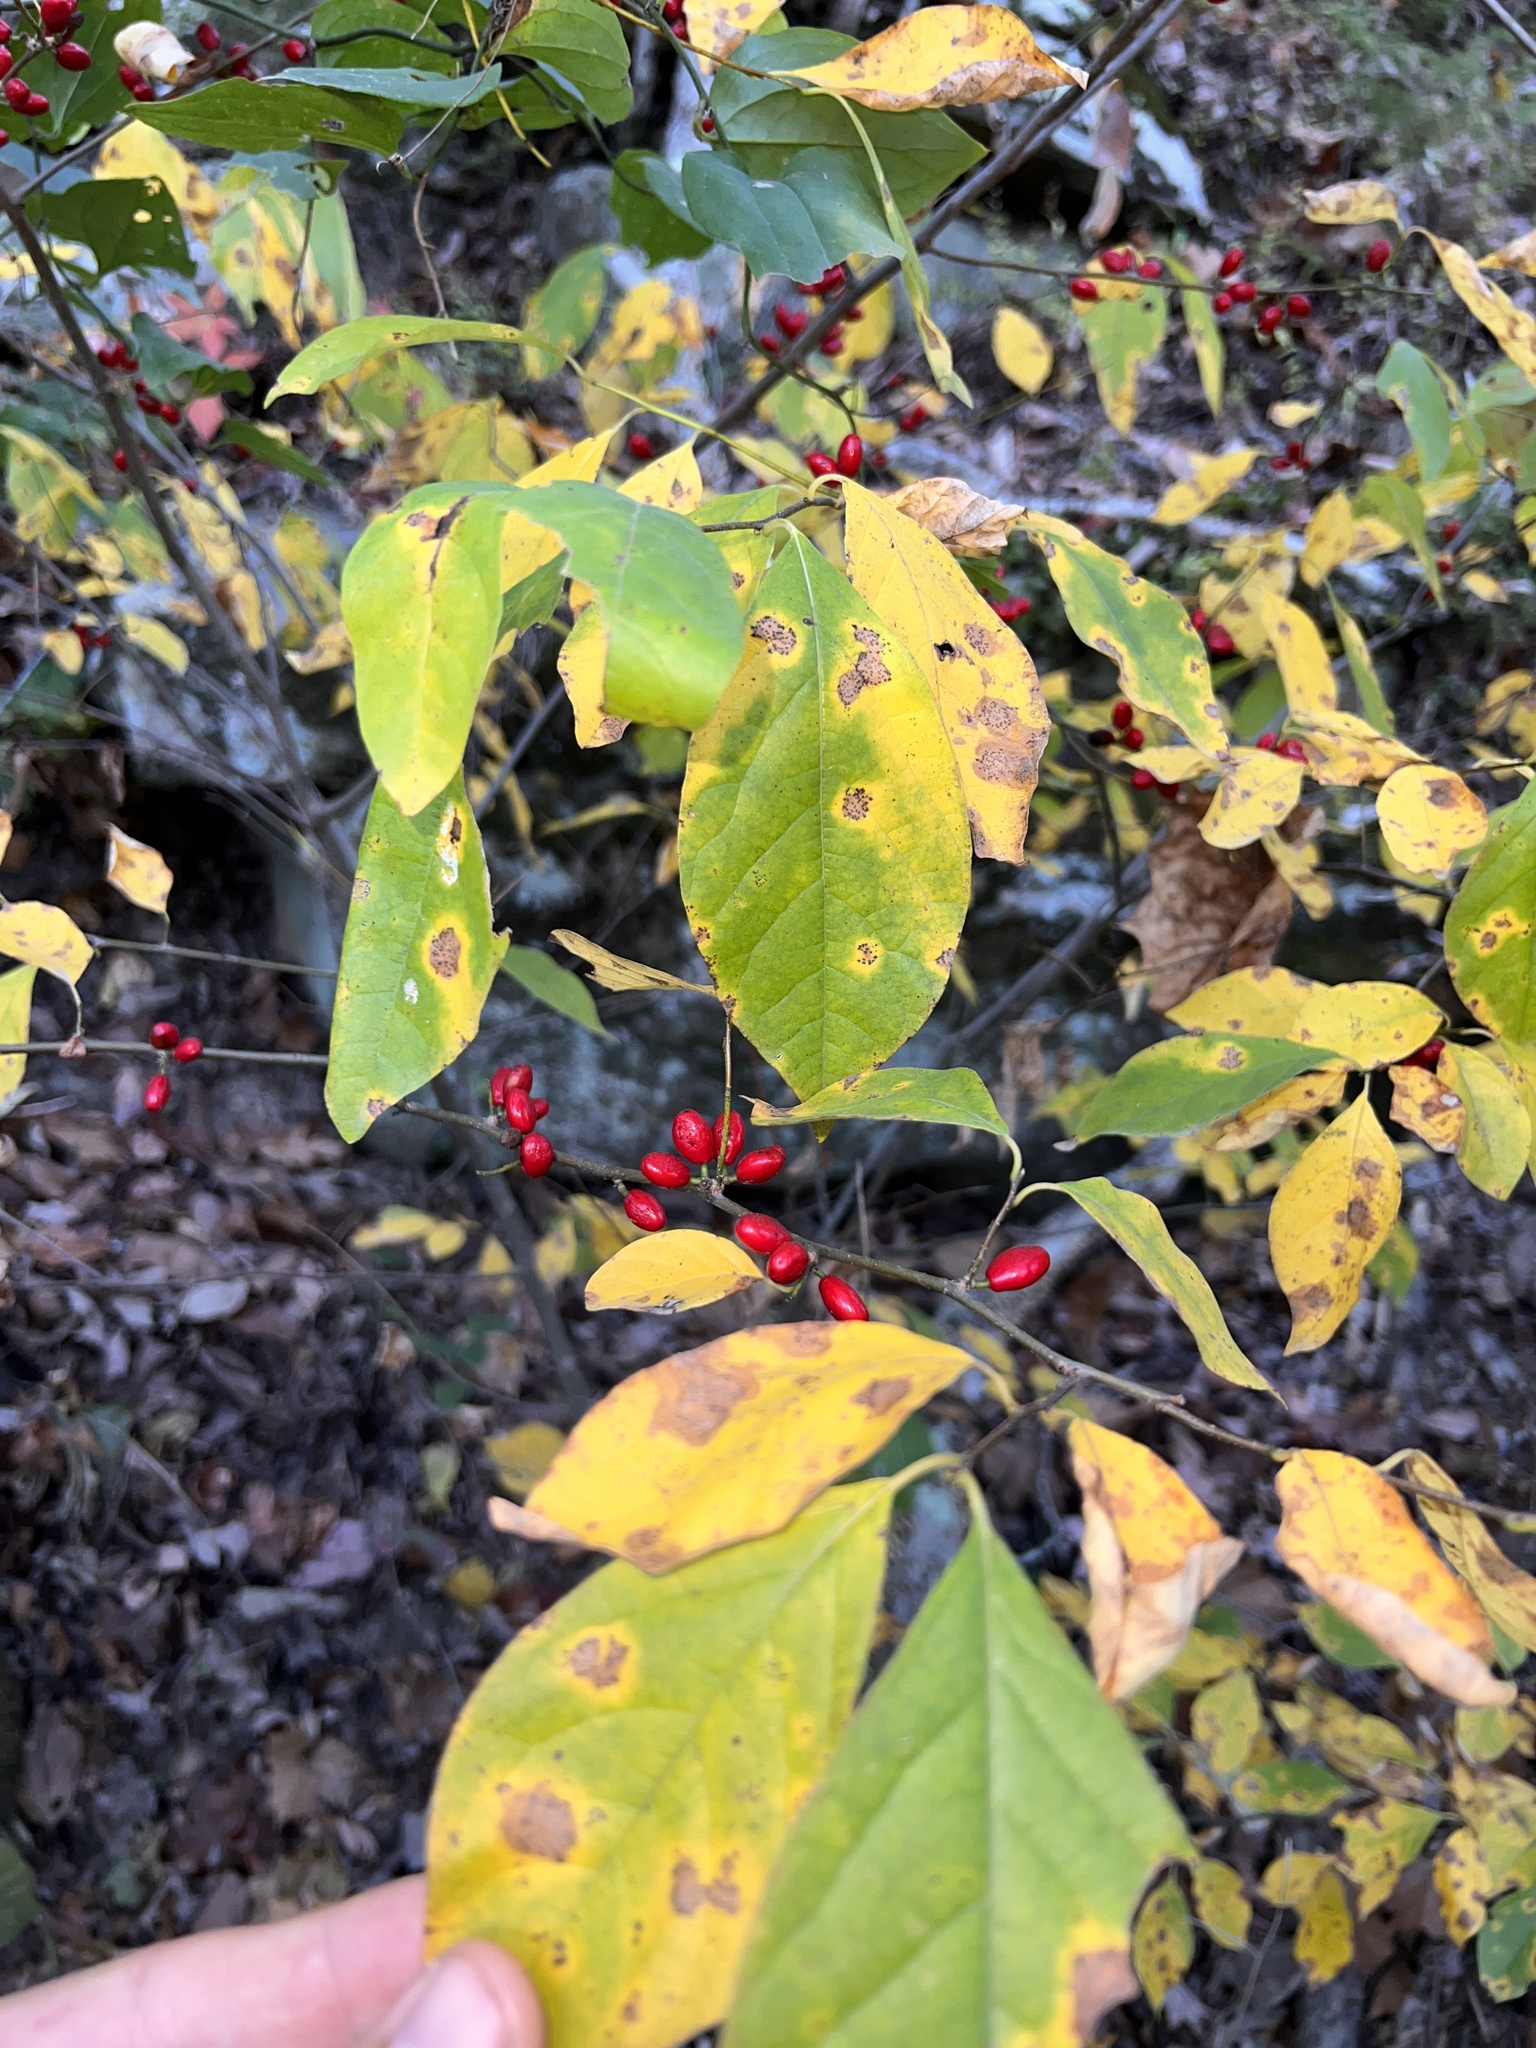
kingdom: Plantae
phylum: Tracheophyta
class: Magnoliopsida
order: Laurales
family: Lauraceae
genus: Lindera
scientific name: Lindera benzoin
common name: Spicebush
